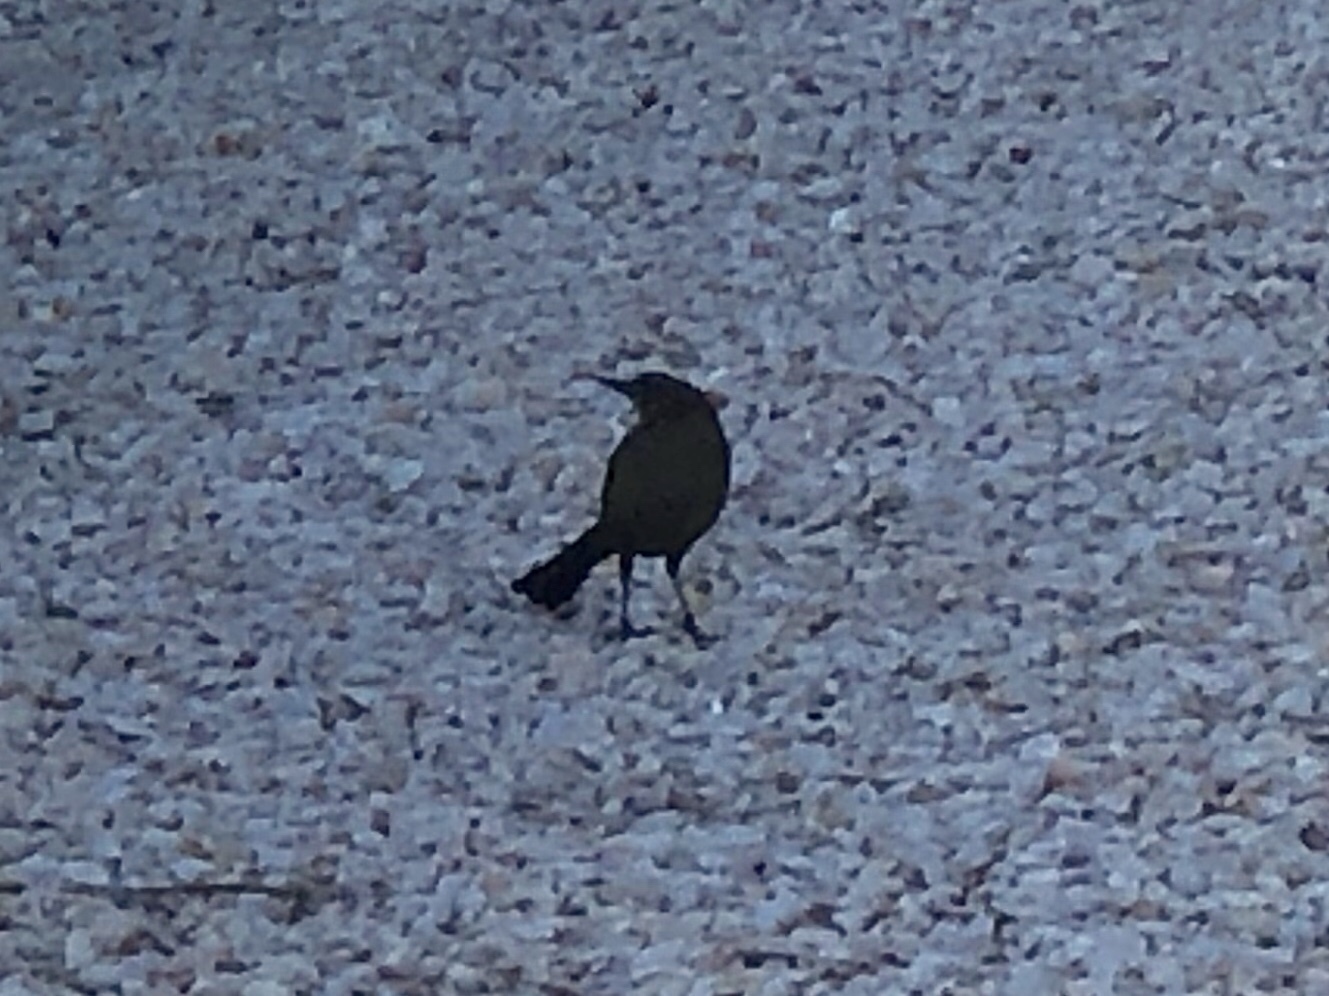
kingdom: Animalia
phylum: Chordata
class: Aves
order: Passeriformes
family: Icteridae
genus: Quiscalus
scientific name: Quiscalus mexicanus
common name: Great-tailed grackle
